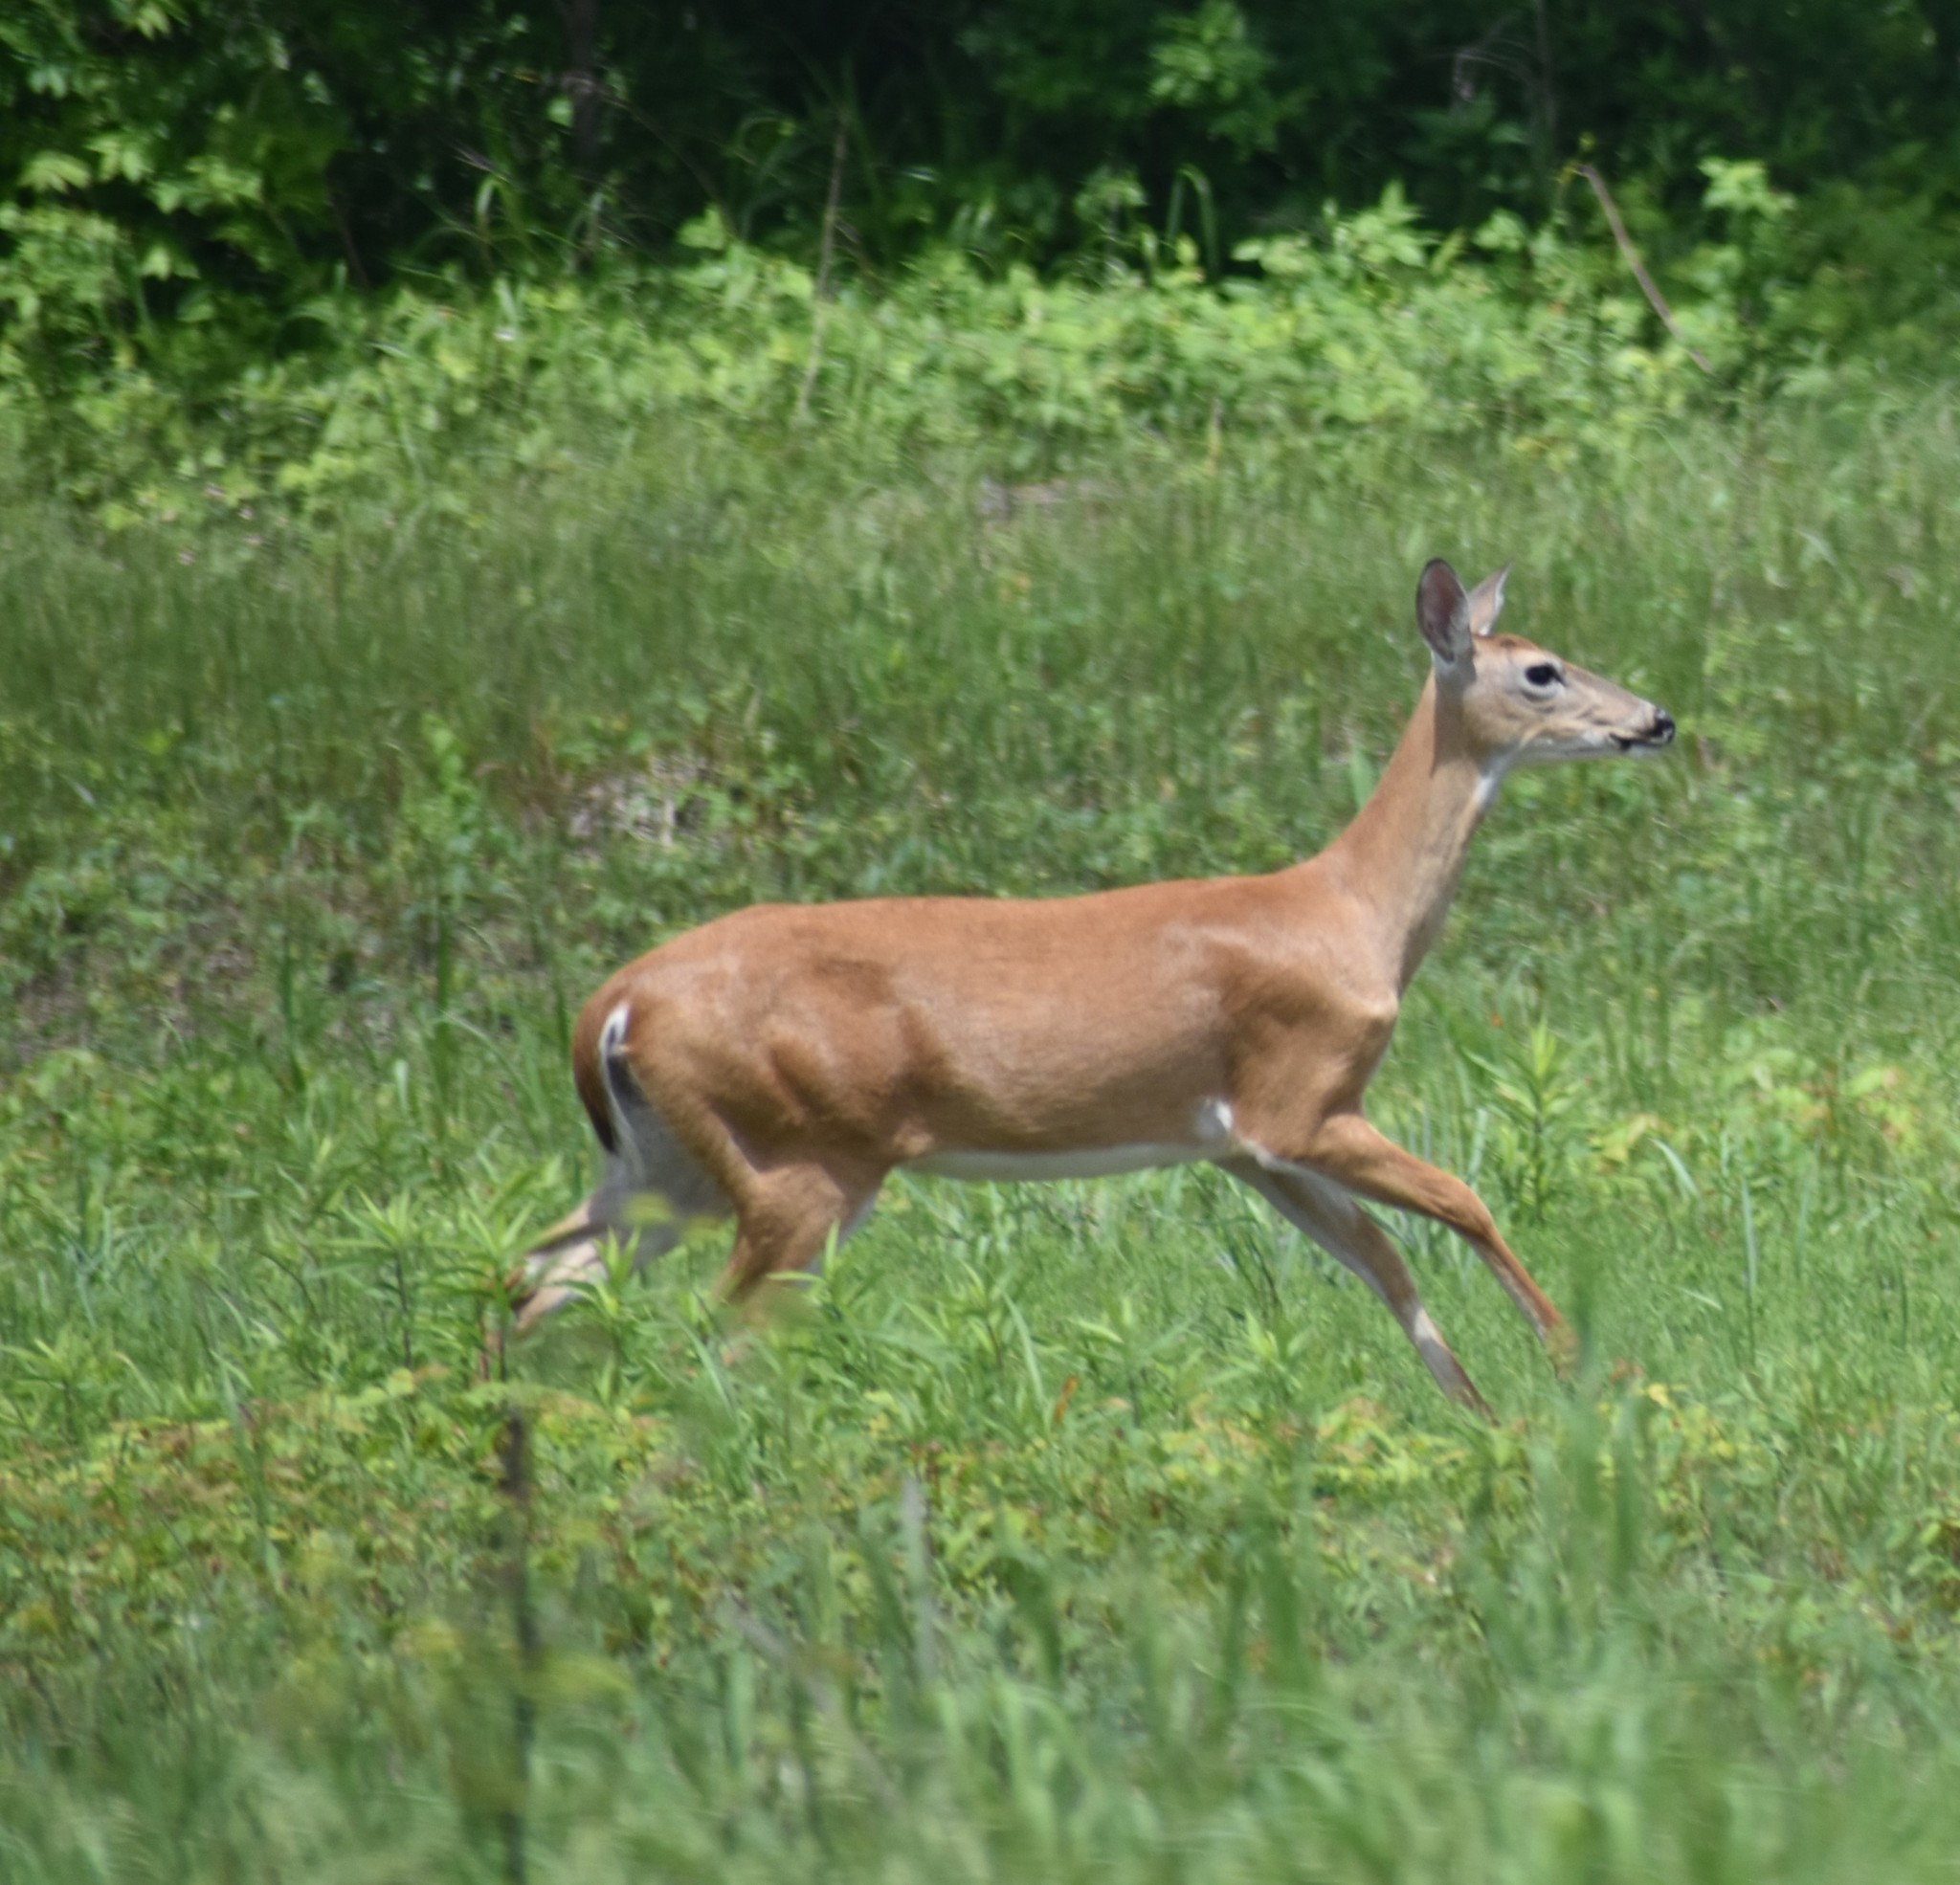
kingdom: Animalia
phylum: Chordata
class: Mammalia
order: Artiodactyla
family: Cervidae
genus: Odocoileus
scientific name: Odocoileus virginianus
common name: White-tailed deer
